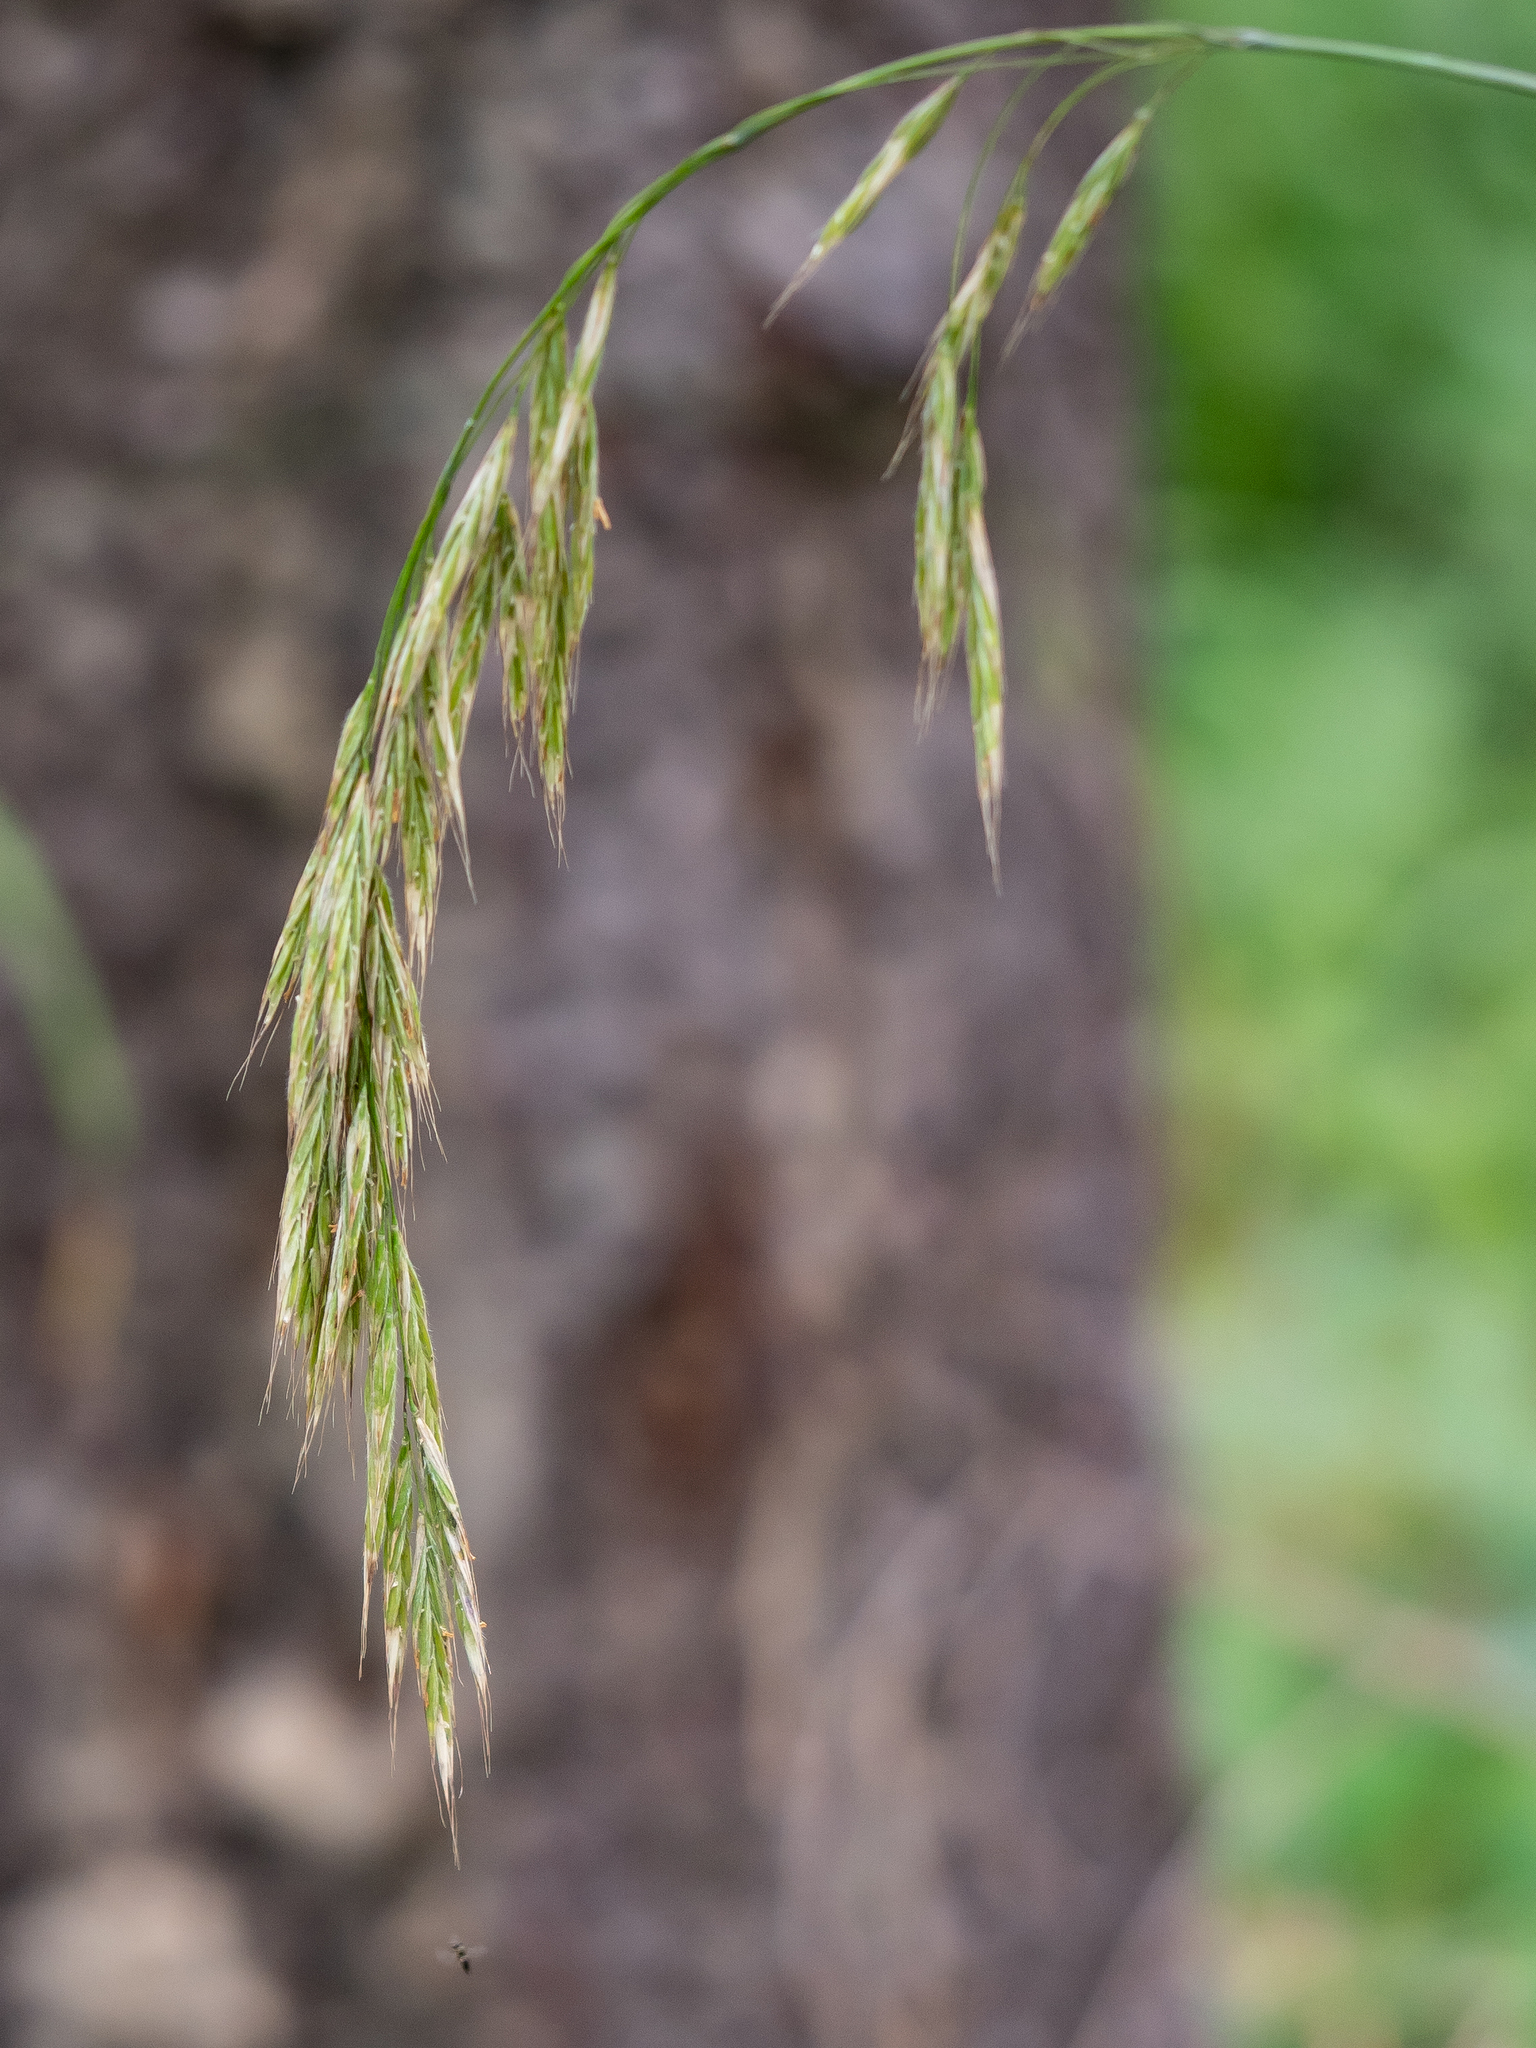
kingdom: Plantae
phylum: Tracheophyta
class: Liliopsida
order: Poales
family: Poaceae
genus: Bromus
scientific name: Bromus benekenii
